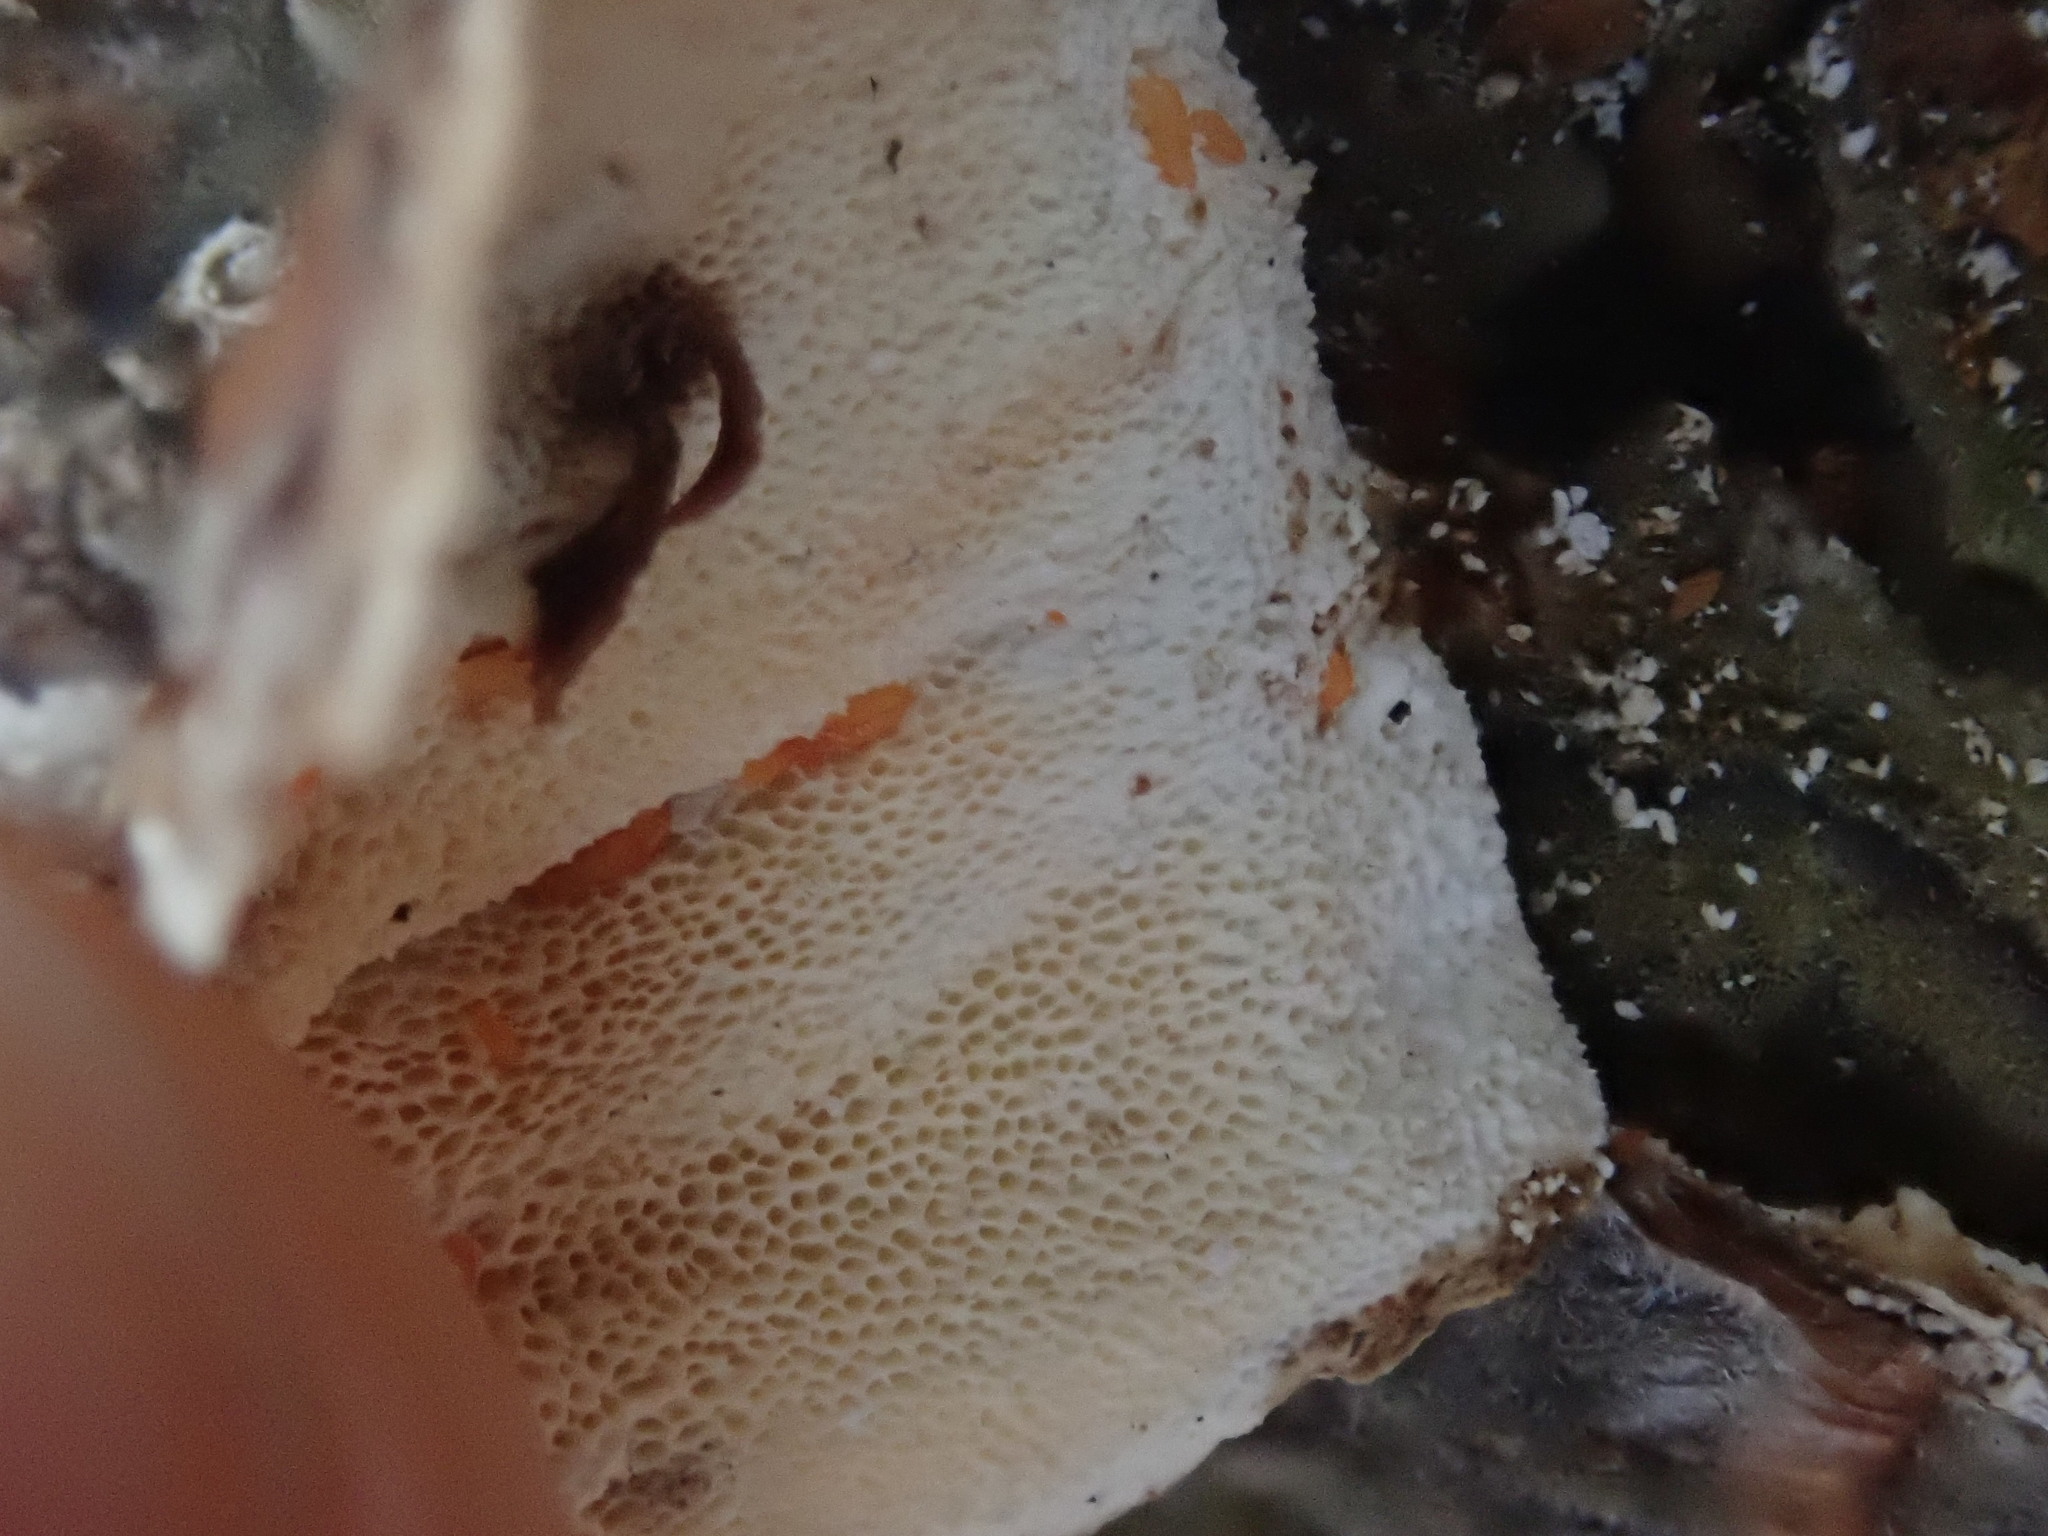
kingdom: Fungi
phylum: Basidiomycota
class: Agaricomycetes
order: Polyporales
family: Polyporaceae
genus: Trametes
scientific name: Trametes versicolor
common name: Turkeytail
